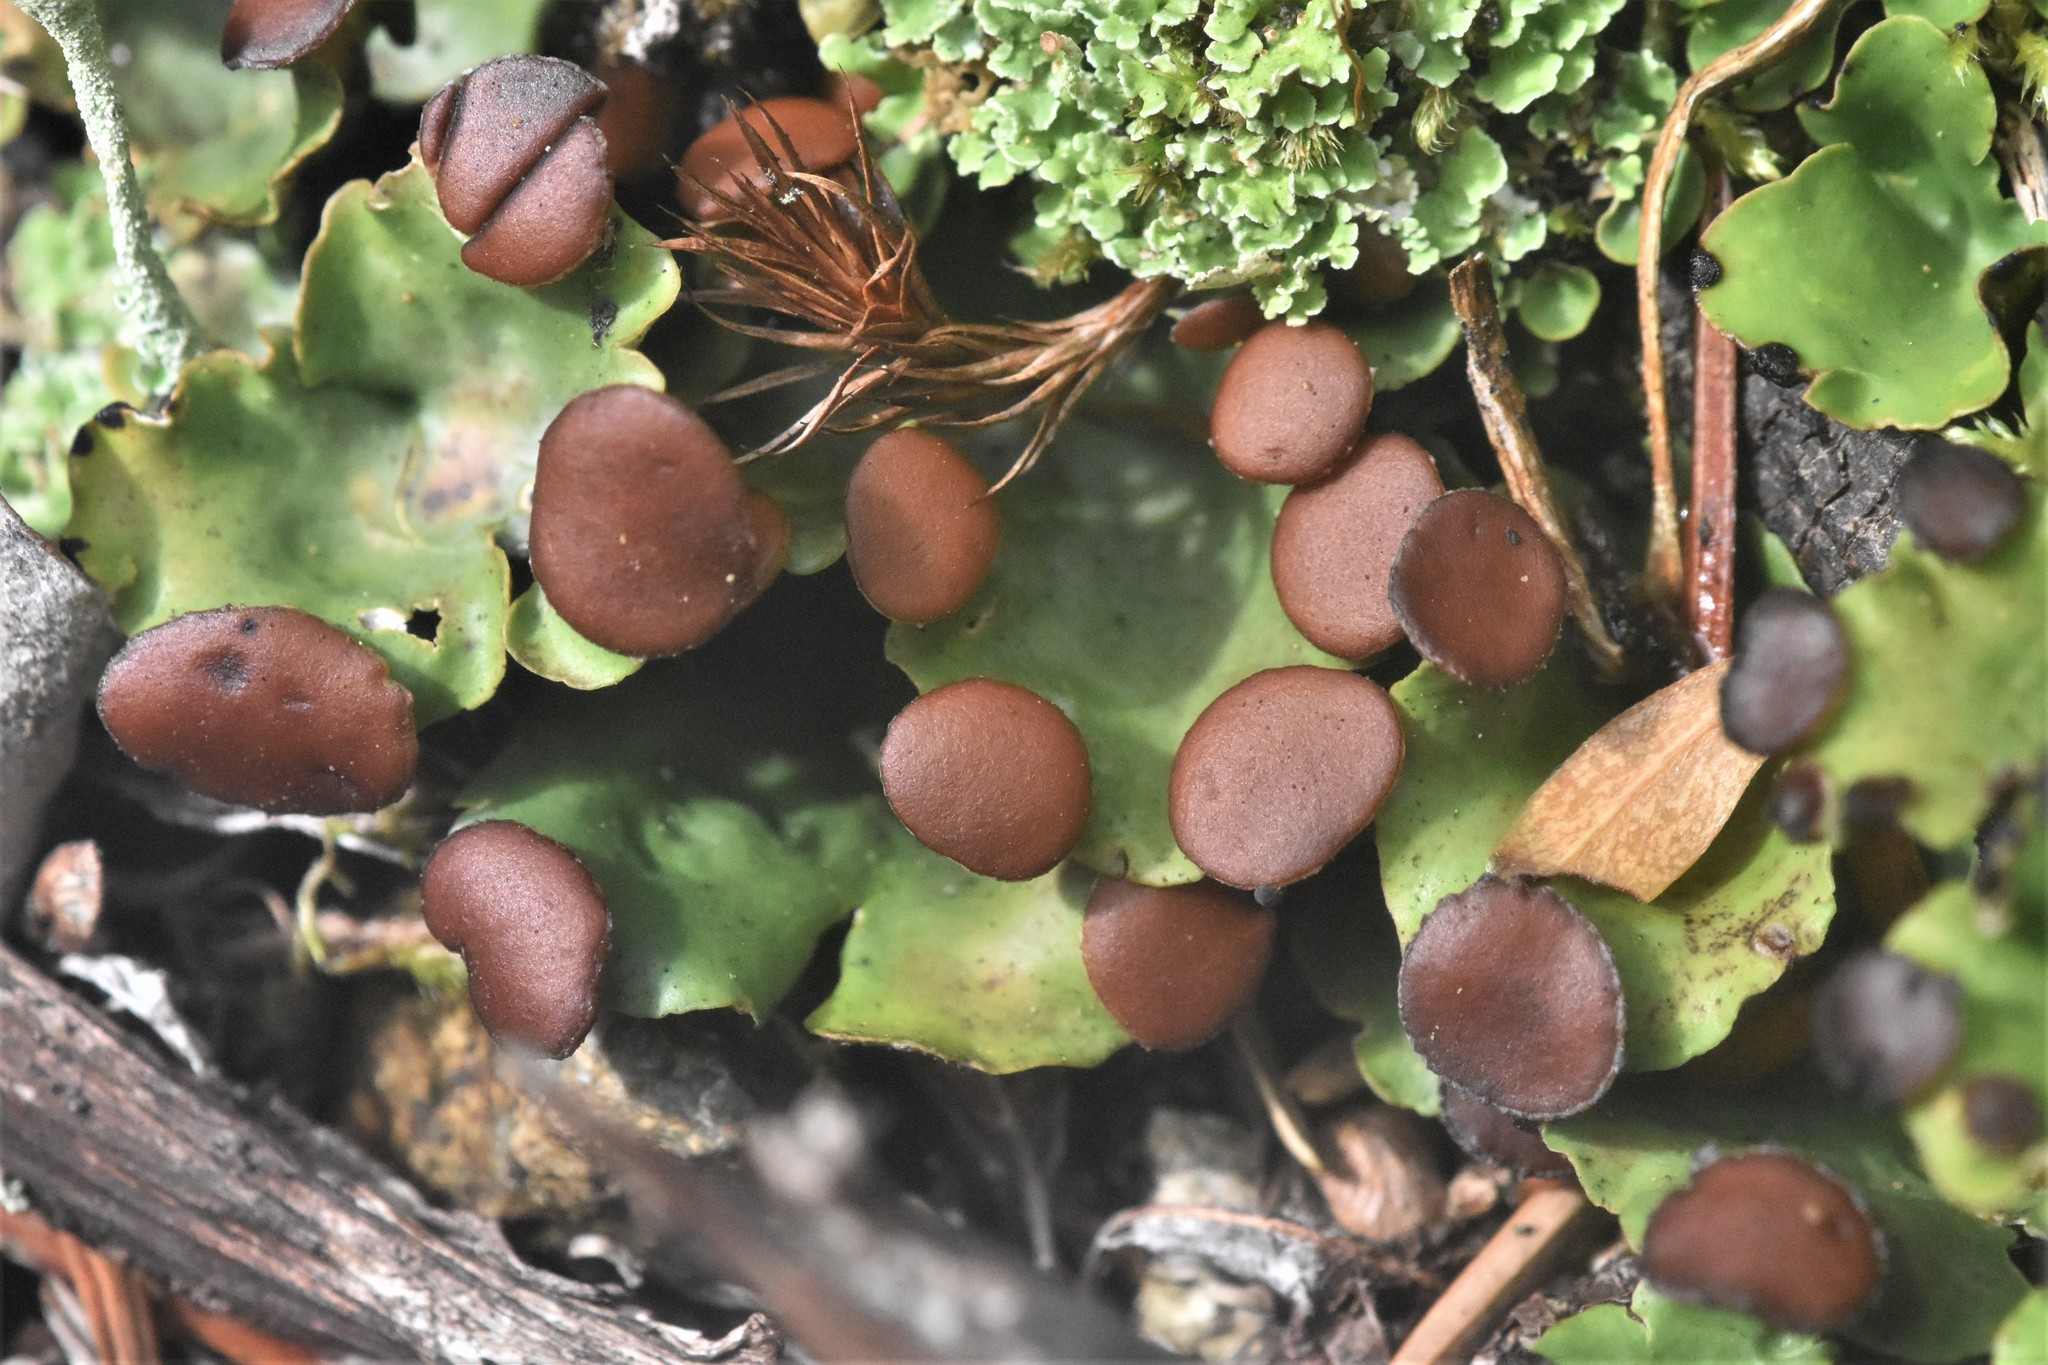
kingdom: Fungi
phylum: Ascomycota
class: Lecanoromycetes
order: Peltigerales
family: Peltigeraceae
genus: Peltigera
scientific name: Peltigera venosa
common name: Pixie gowns lichen
